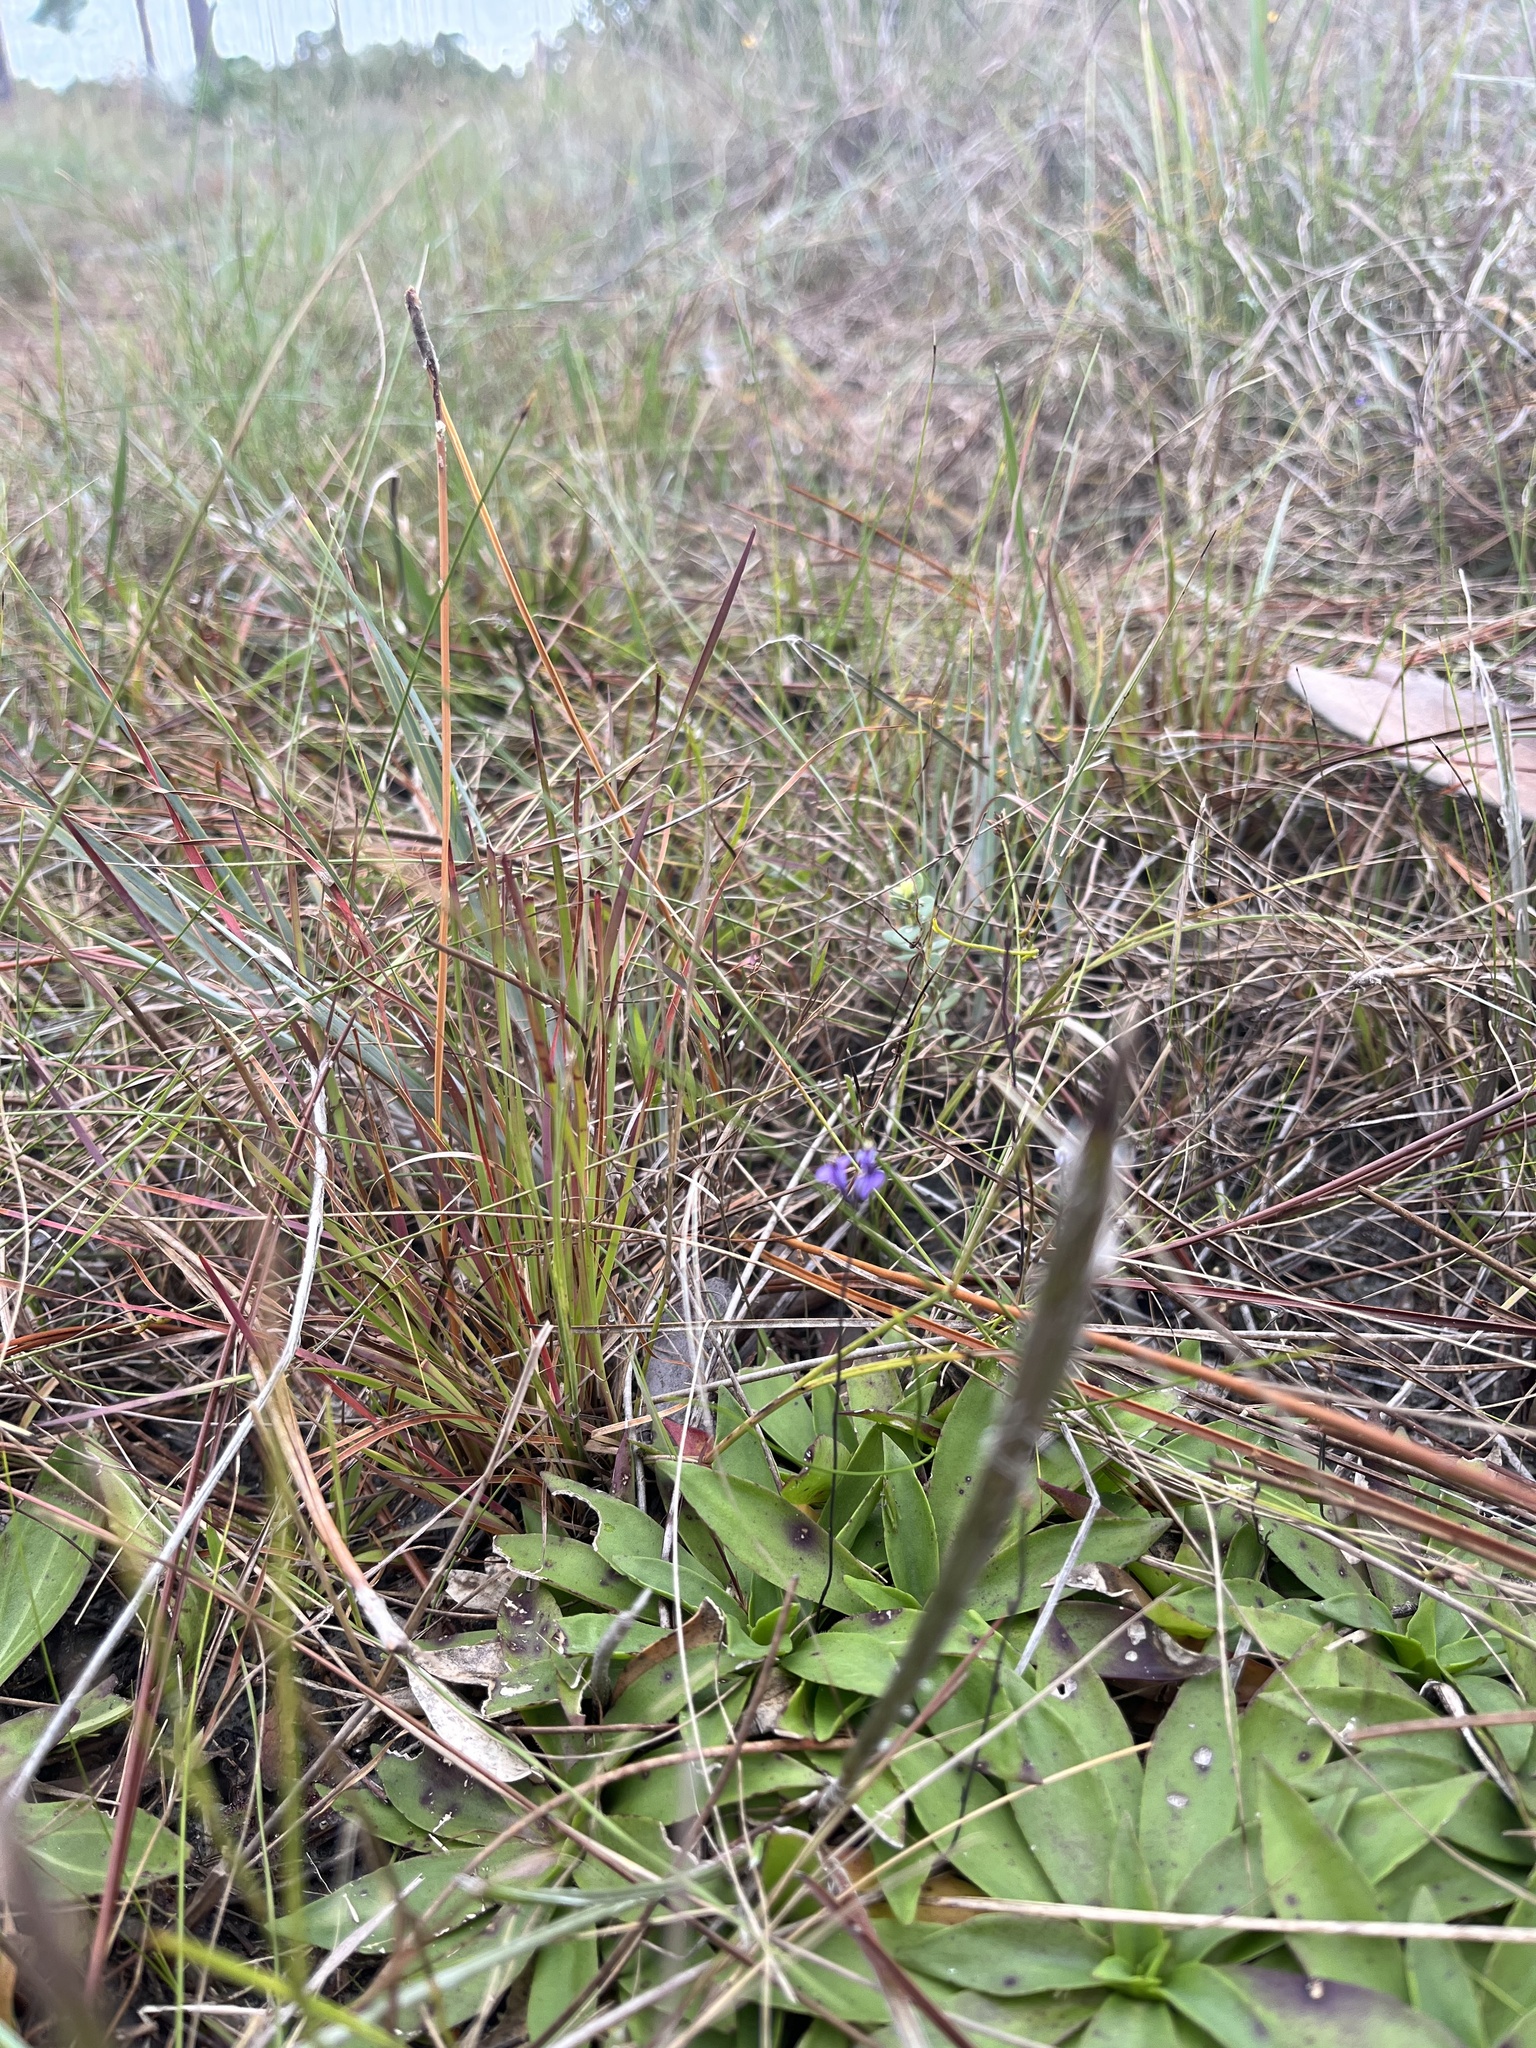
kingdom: Plantae
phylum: Tracheophyta
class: Liliopsida
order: Dioscoreales
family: Burmanniaceae
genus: Burmannia
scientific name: Burmannia biflora
